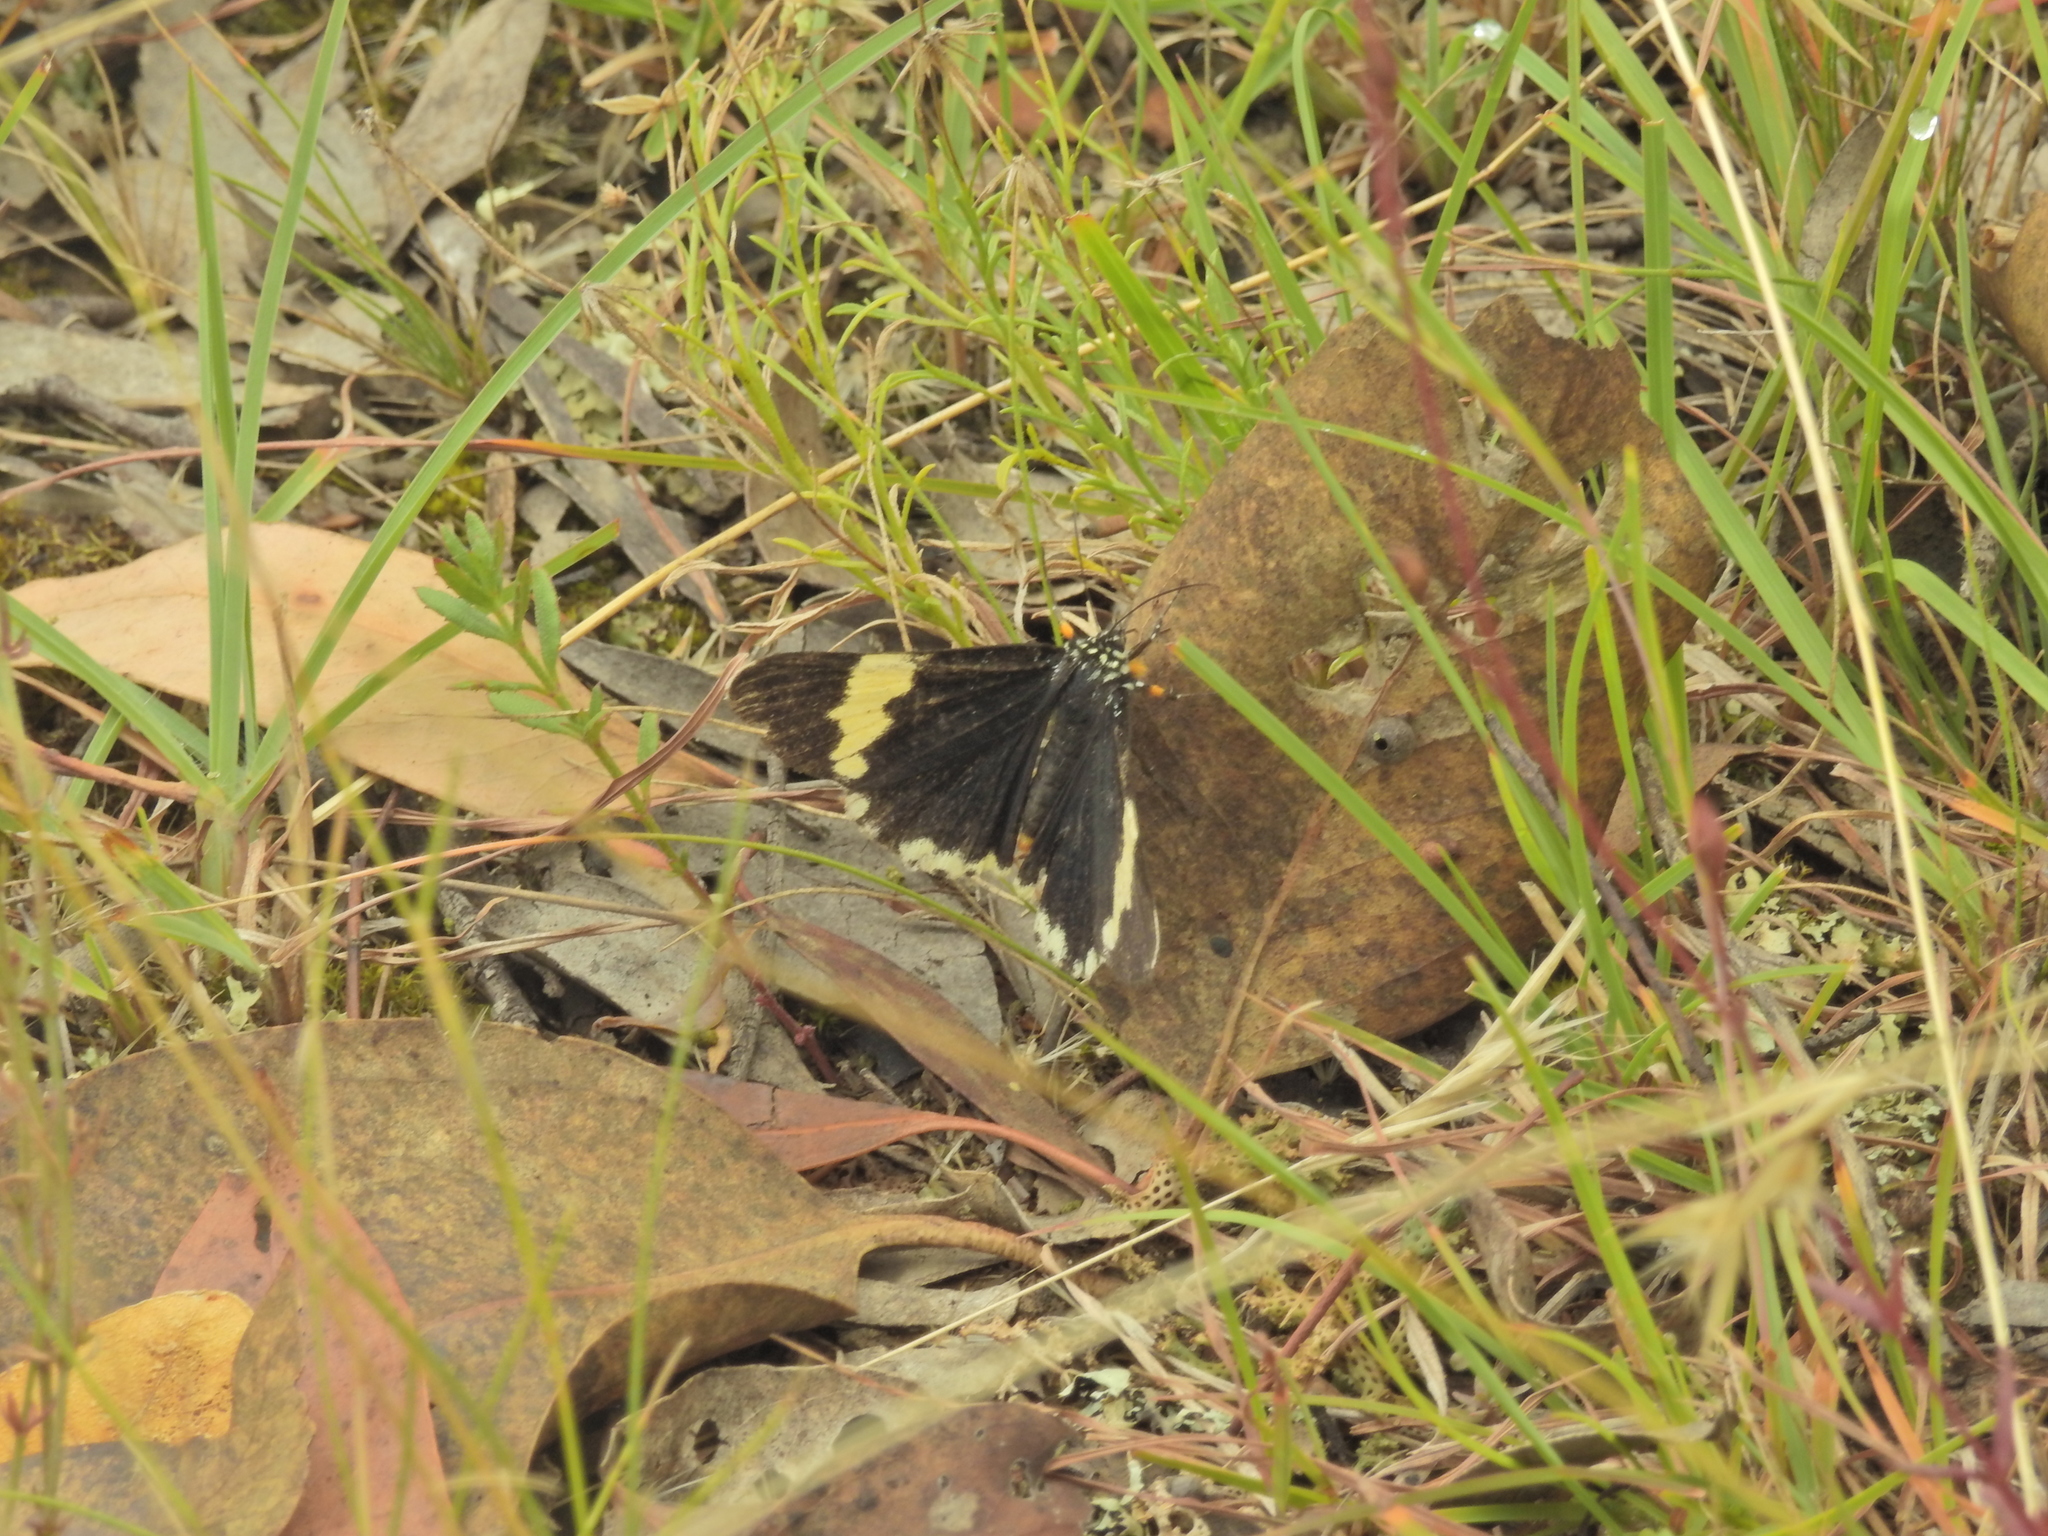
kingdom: Animalia
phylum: Arthropoda
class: Insecta
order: Lepidoptera
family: Noctuidae
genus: Eutrichopidia
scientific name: Eutrichopidia latinus
